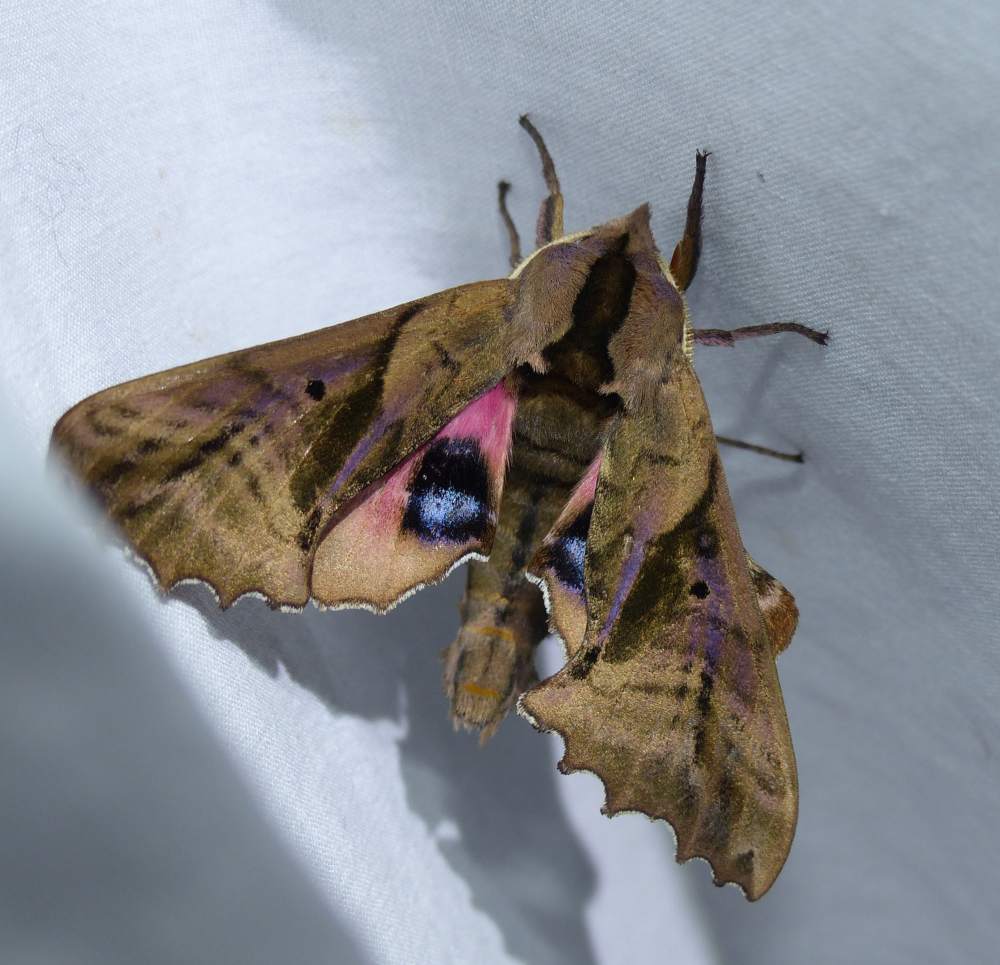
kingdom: Animalia
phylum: Arthropoda
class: Insecta
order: Lepidoptera
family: Sphingidae
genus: Paonias
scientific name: Paonias excaecata
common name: Blind-eyed sphinx
